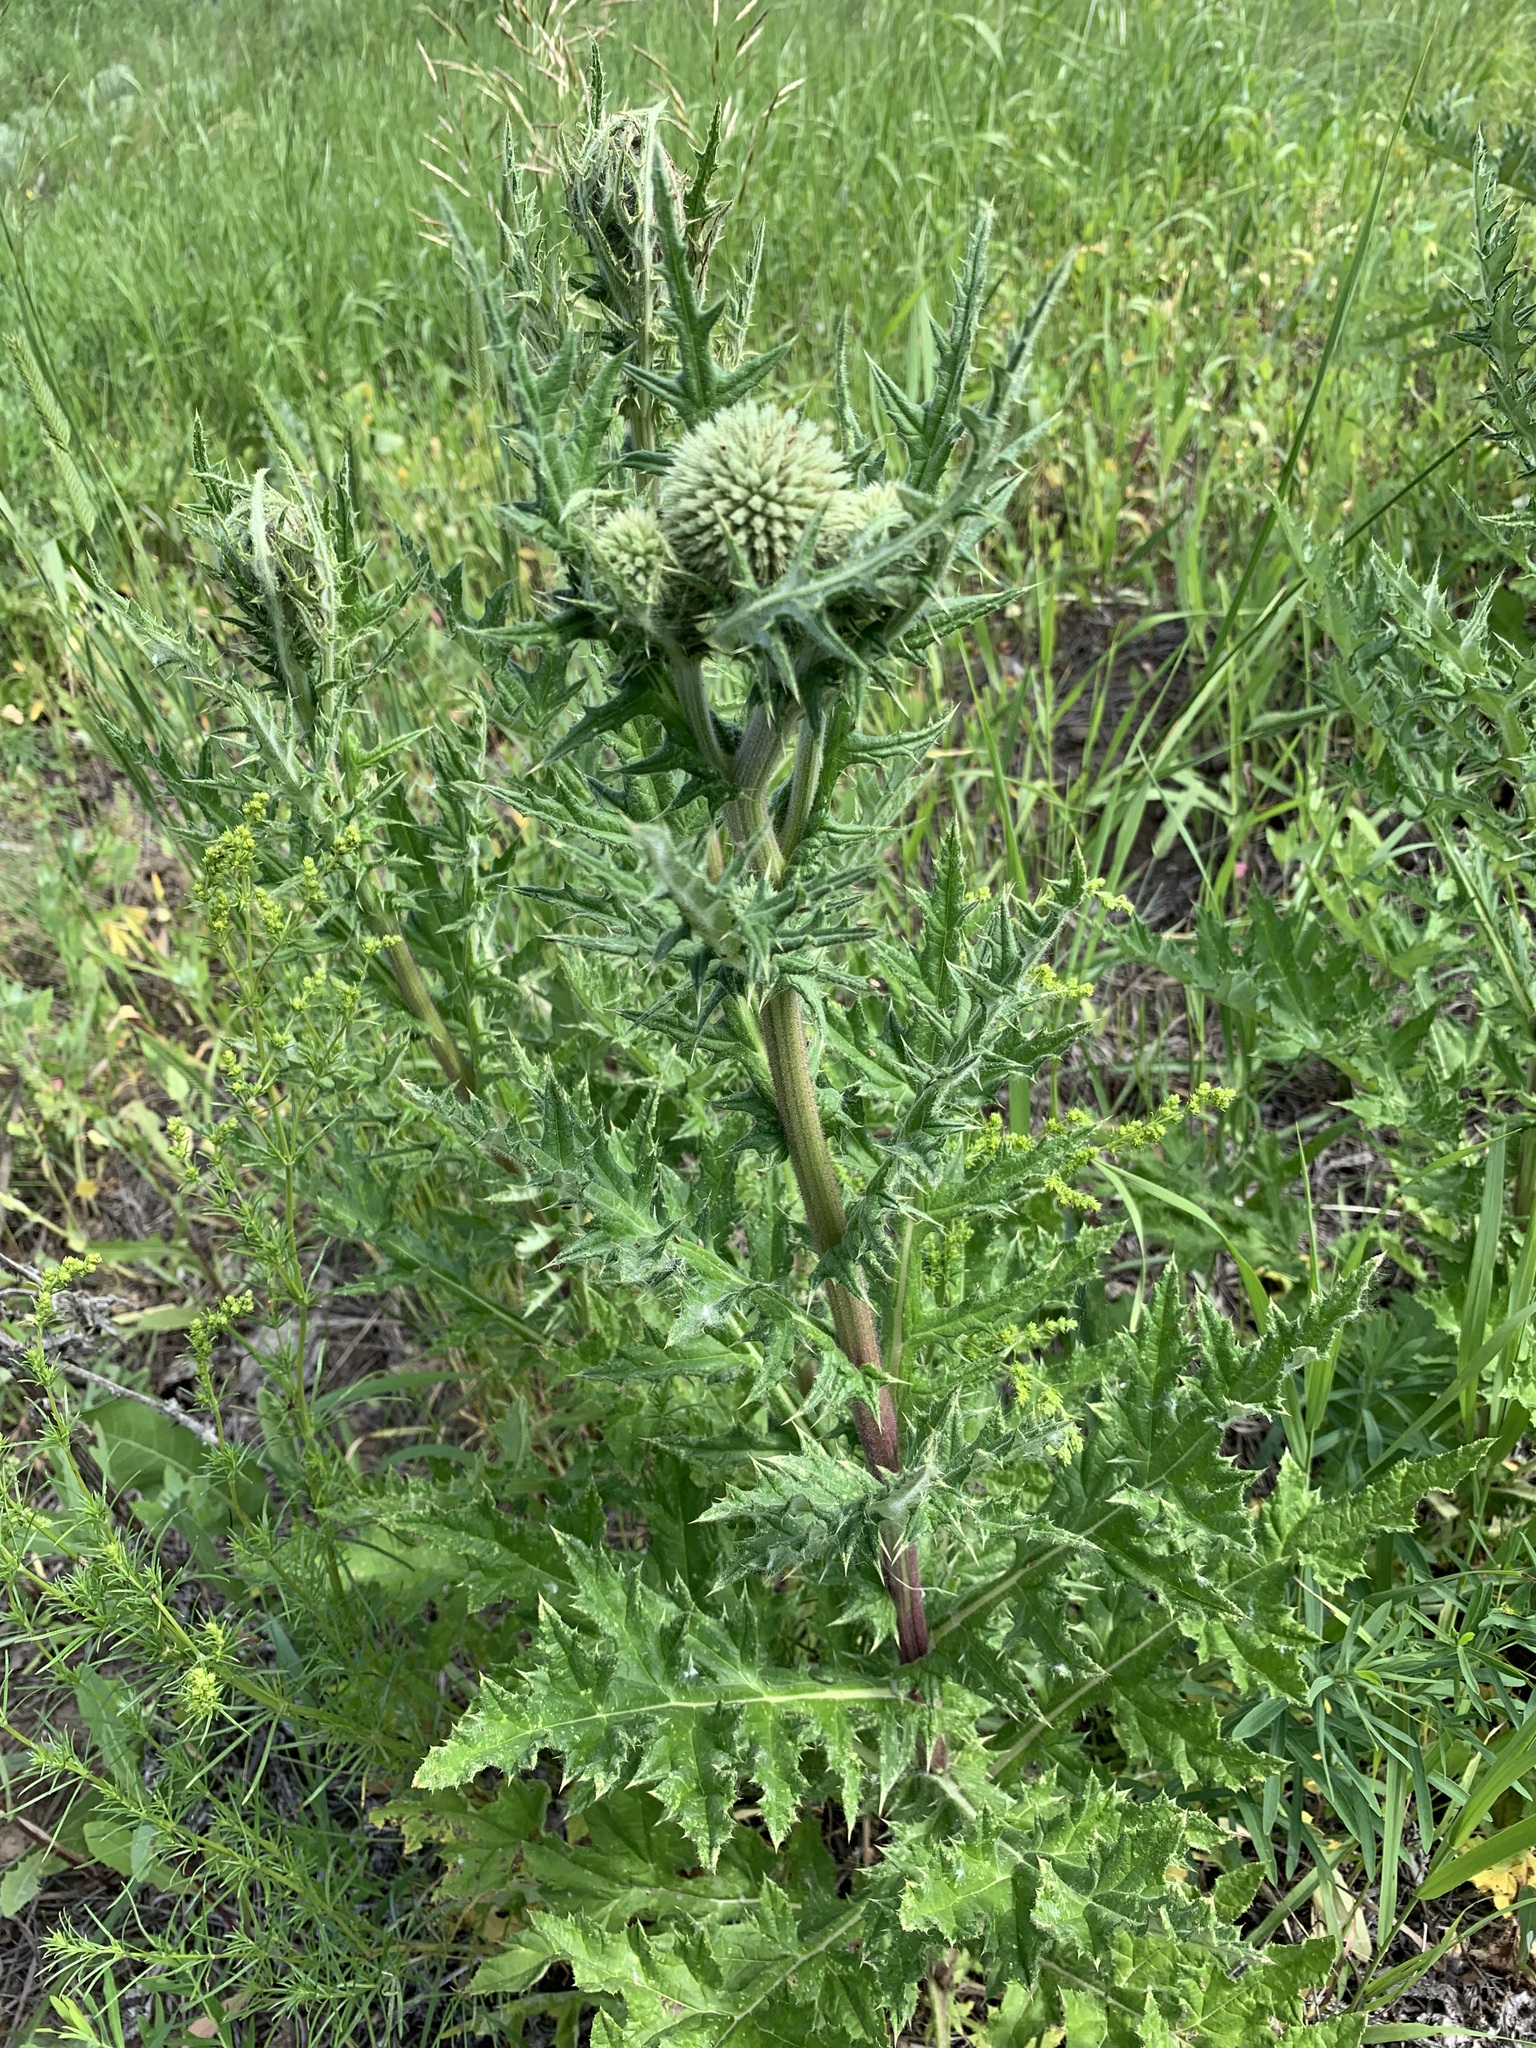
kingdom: Plantae
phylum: Tracheophyta
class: Magnoliopsida
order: Asterales
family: Asteraceae
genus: Echinops
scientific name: Echinops sphaerocephalus
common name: Glandular globe-thistle
